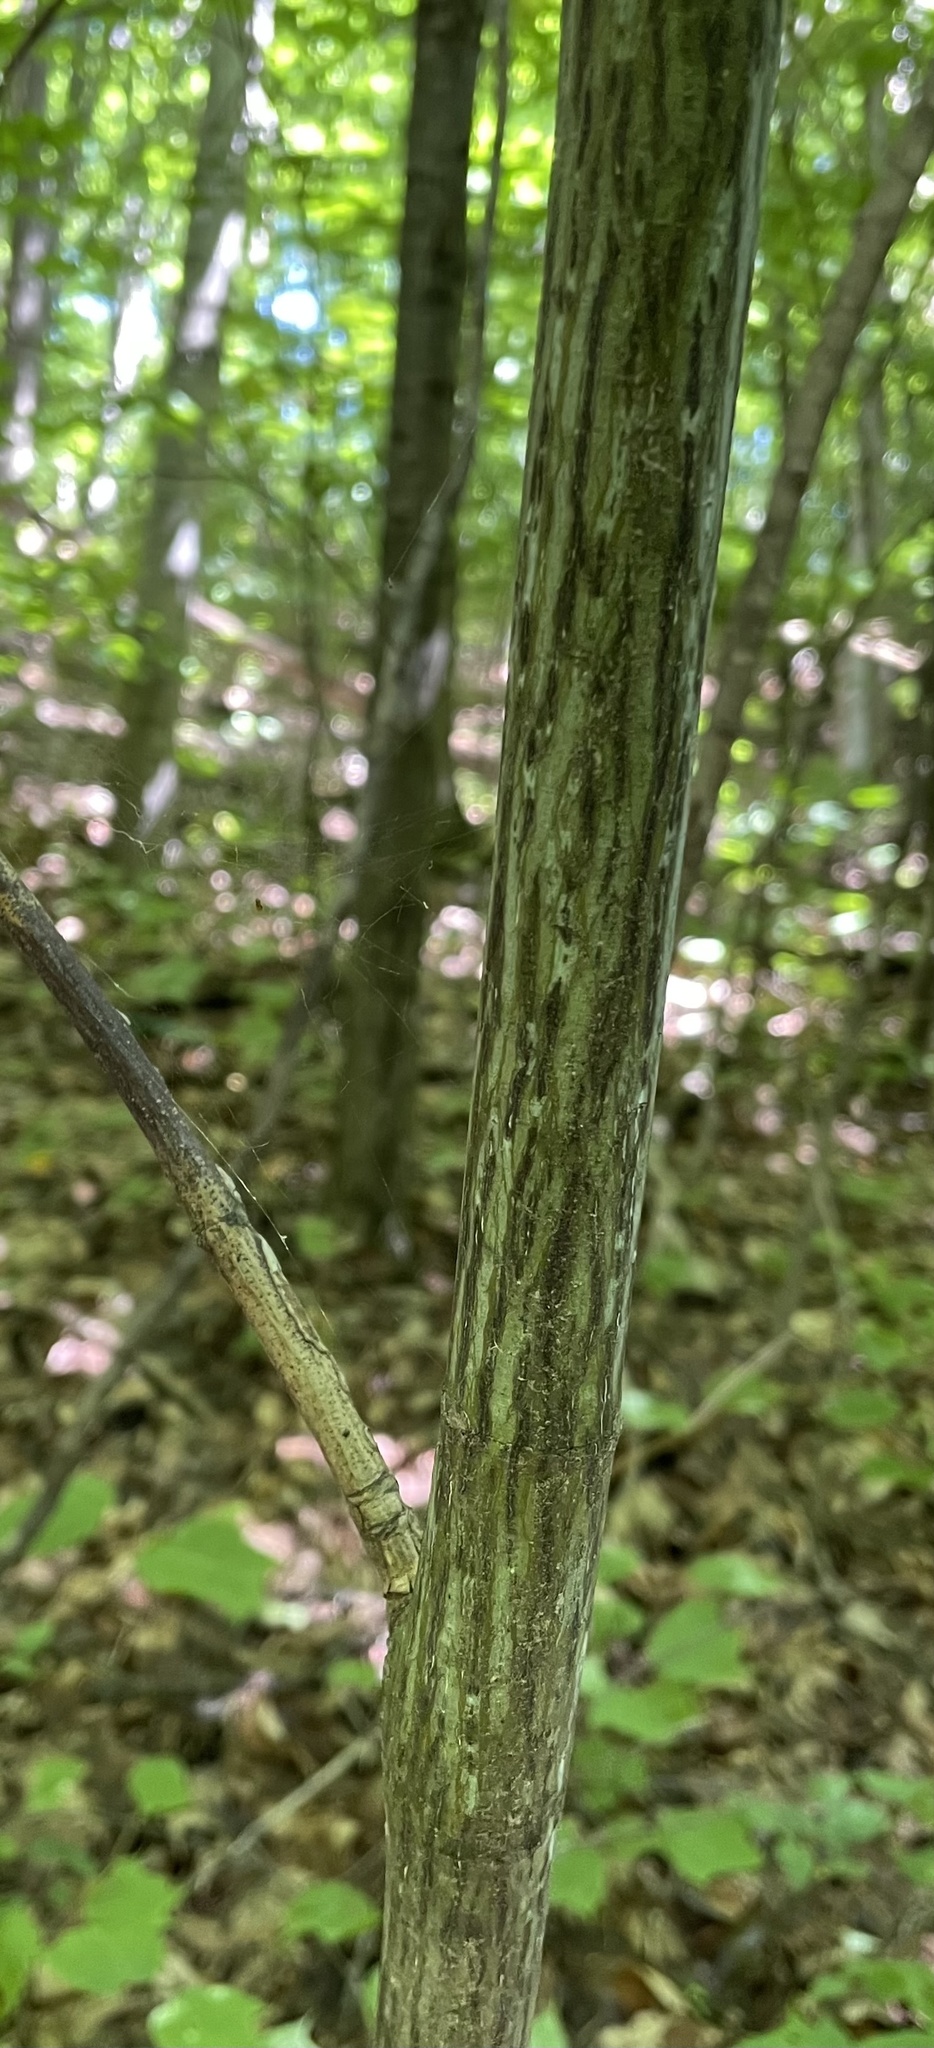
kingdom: Plantae
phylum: Tracheophyta
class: Magnoliopsida
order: Sapindales
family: Sapindaceae
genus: Acer
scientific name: Acer pensylvanicum
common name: Moosewood
